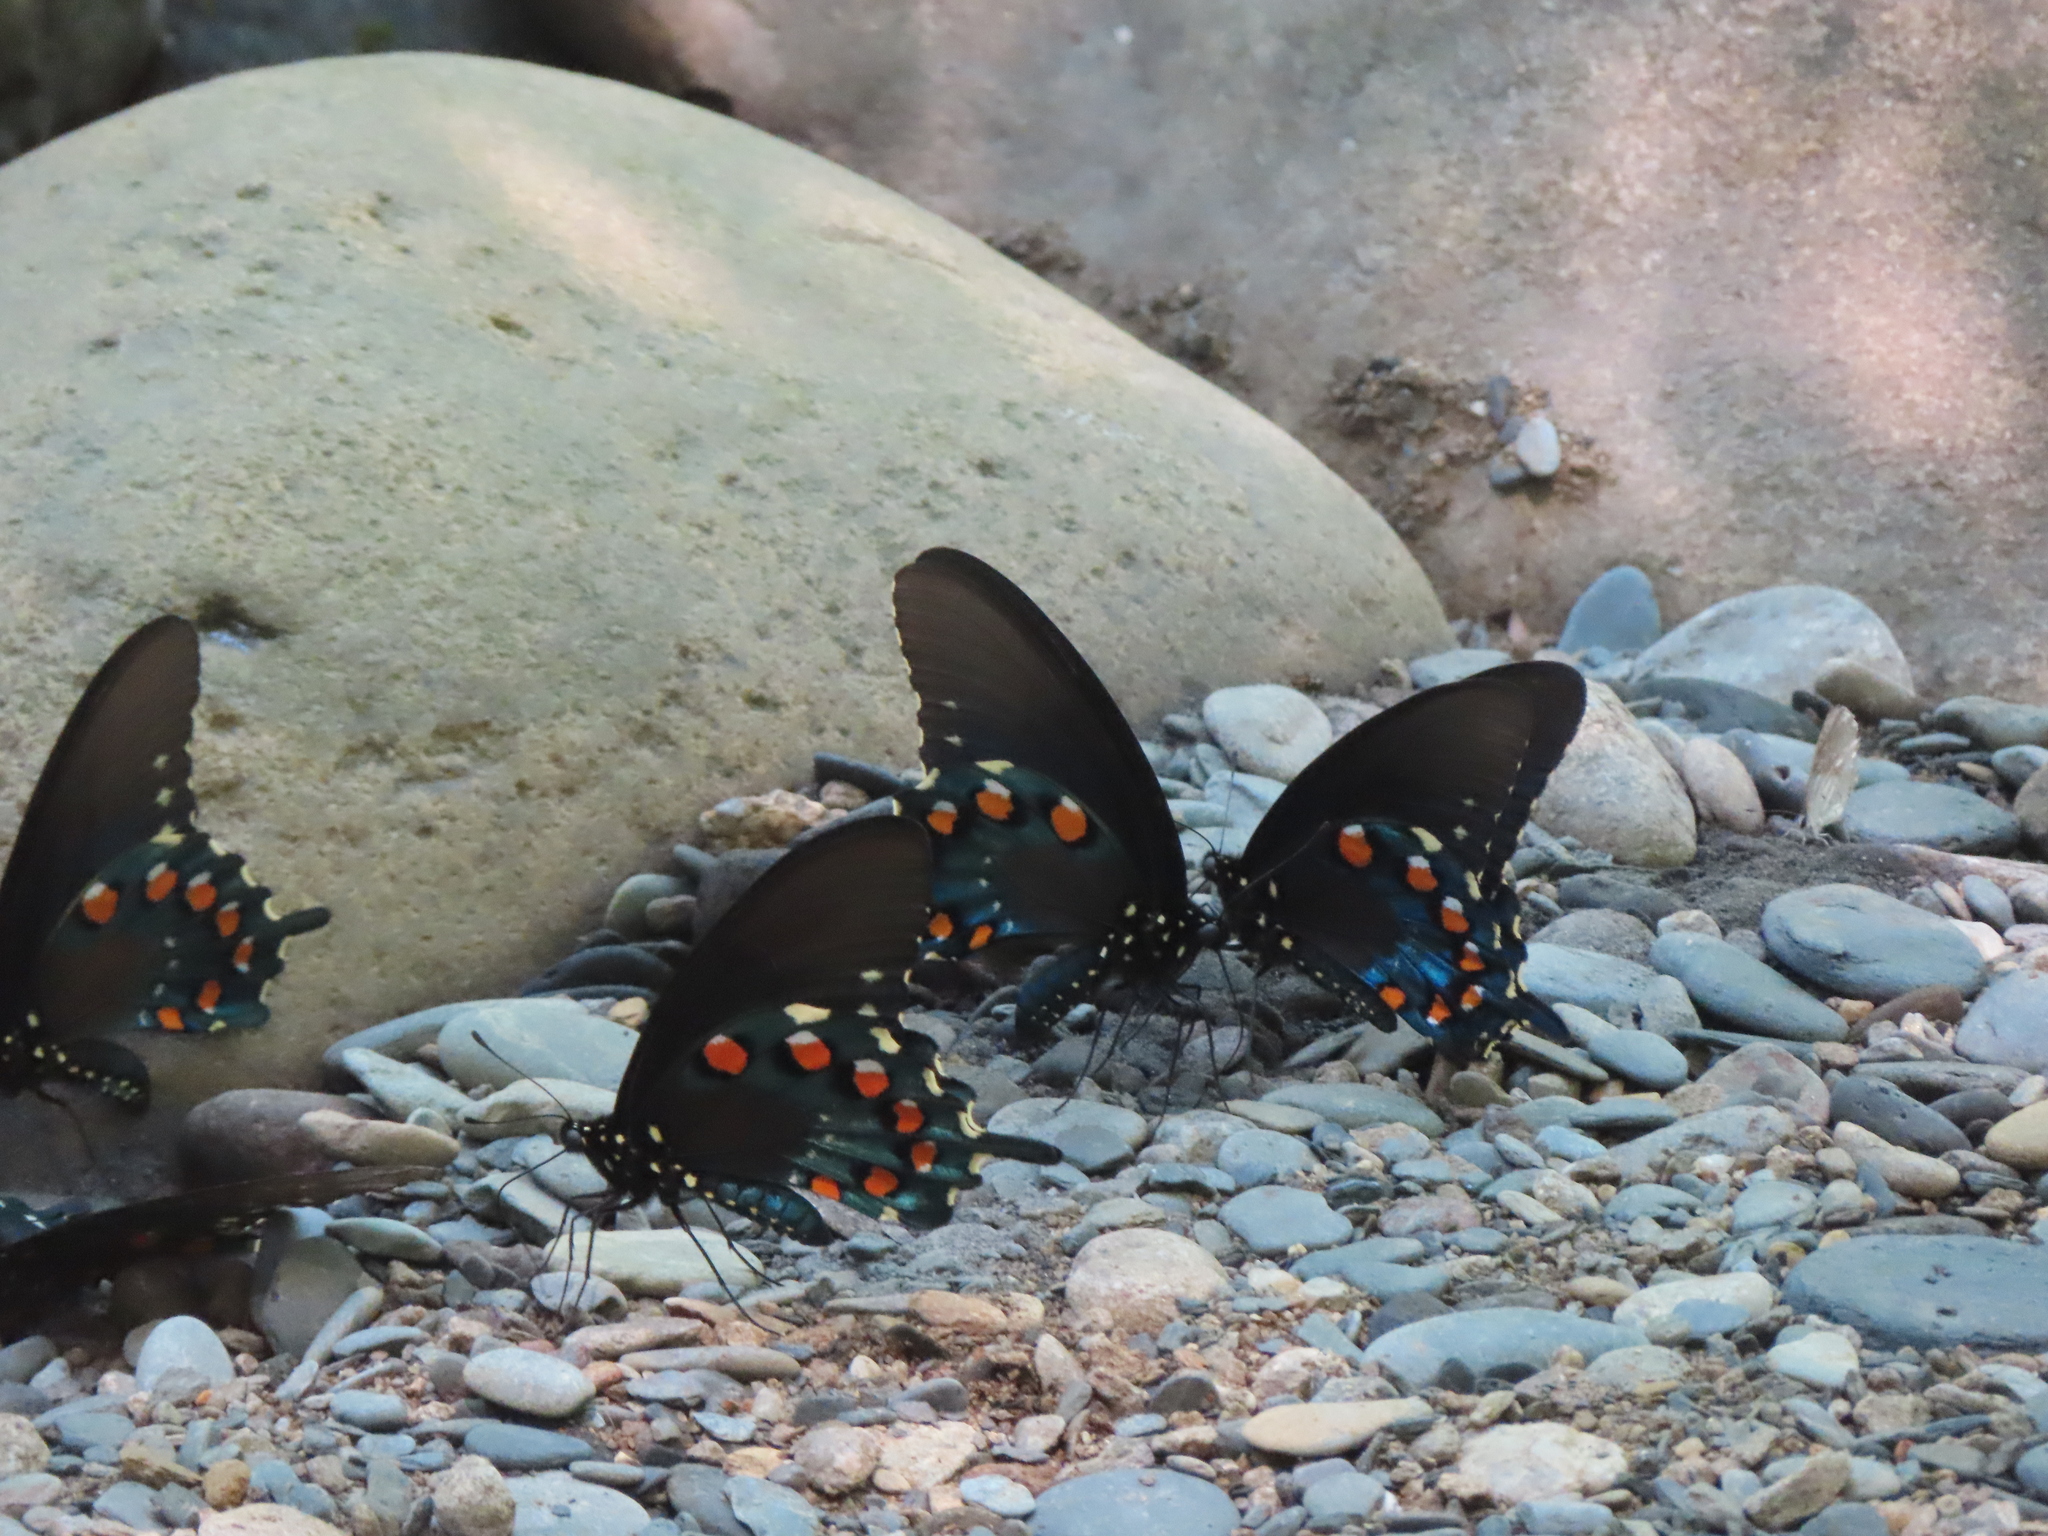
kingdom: Animalia
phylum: Arthropoda
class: Insecta
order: Lepidoptera
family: Papilionidae
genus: Battus
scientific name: Battus philenor
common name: Pipevine swallowtail
